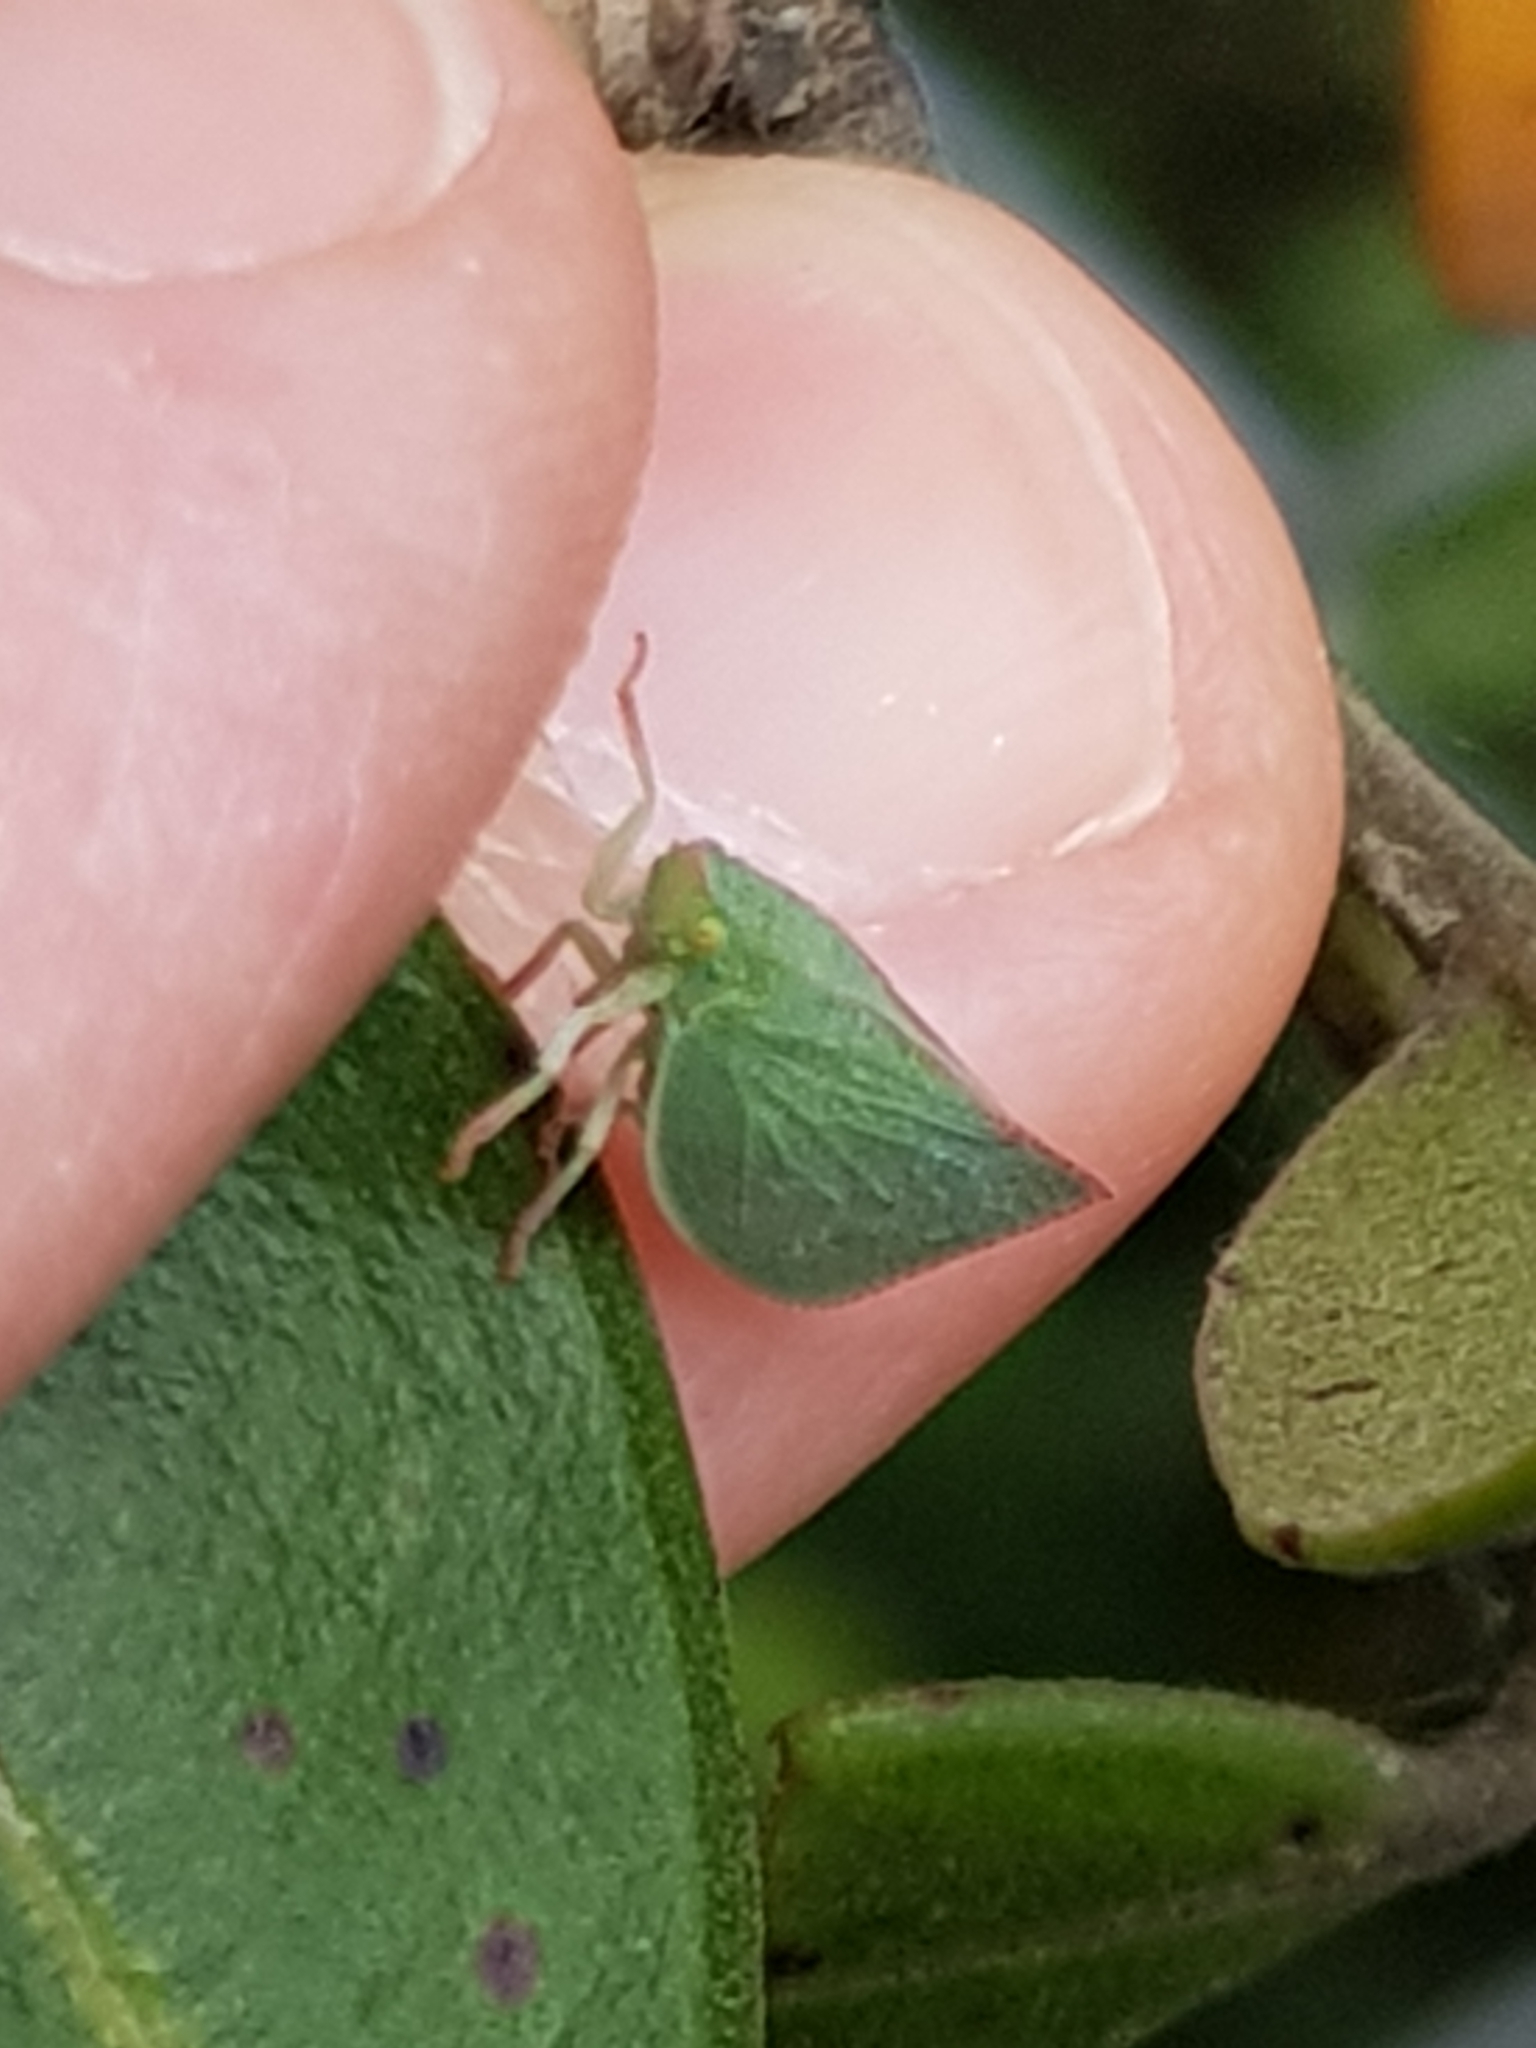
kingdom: Animalia
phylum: Arthropoda
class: Insecta
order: Hemiptera
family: Flatidae
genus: Siphanta
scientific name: Siphanta acuta
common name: Torpedo bug
